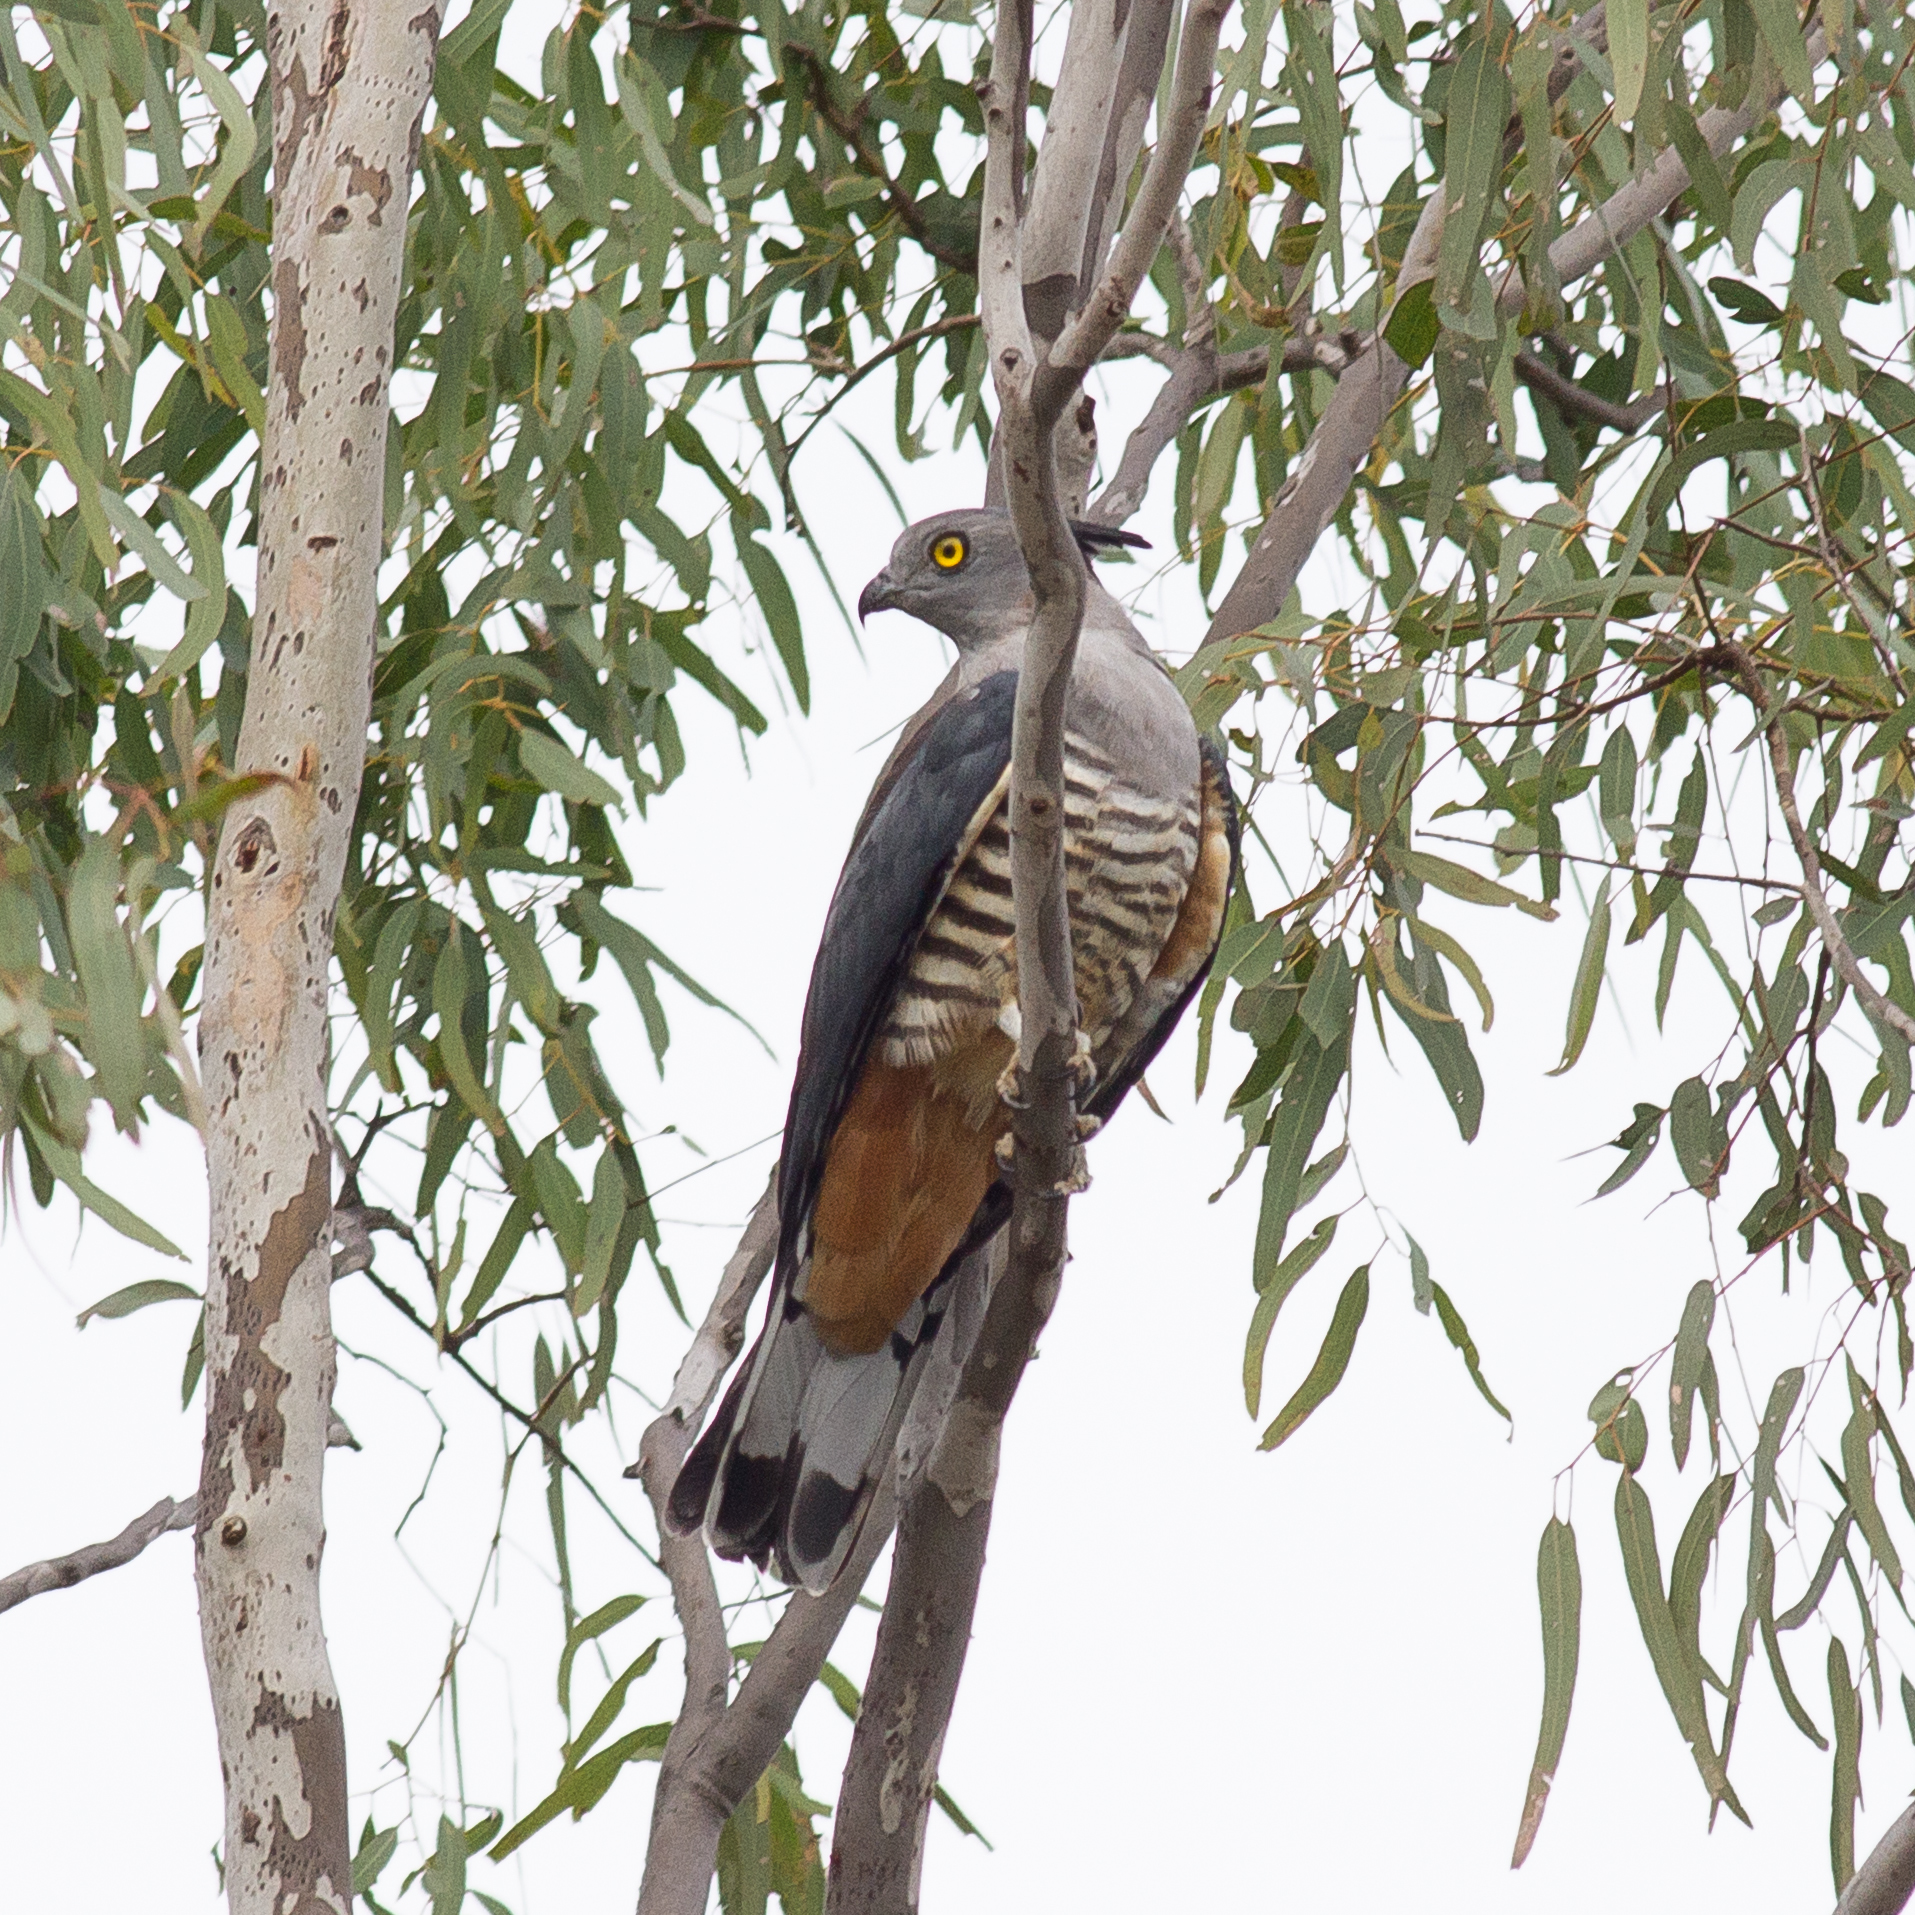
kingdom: Animalia
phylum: Chordata
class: Aves
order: Accipitriformes
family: Accipitridae
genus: Aviceda
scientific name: Aviceda subcristata
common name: Pacific baza
